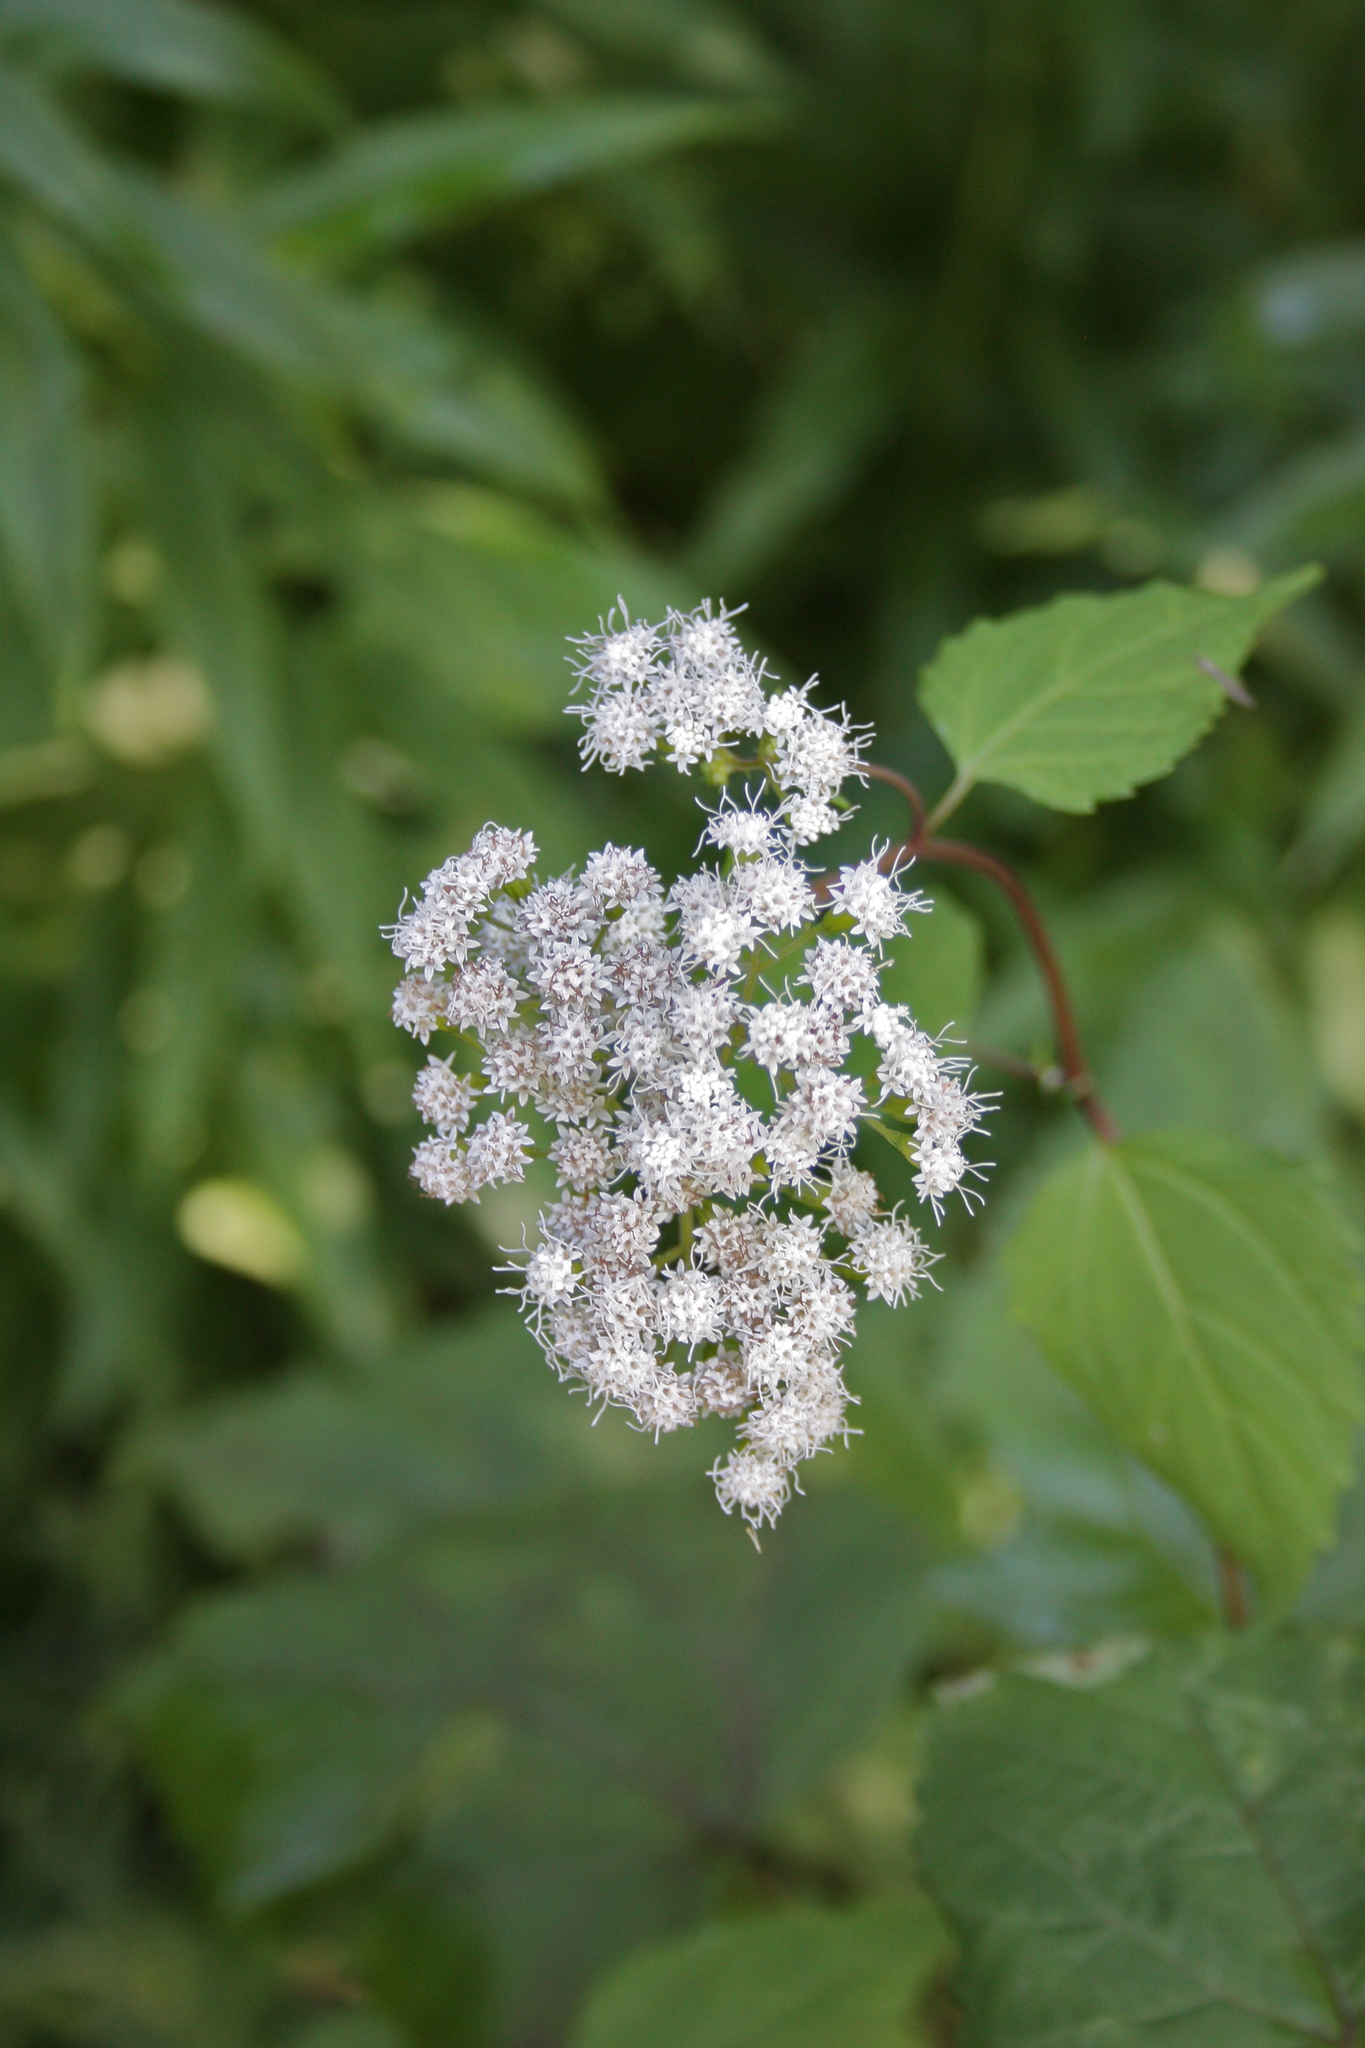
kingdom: Plantae
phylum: Tracheophyta
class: Magnoliopsida
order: Asterales
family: Asteraceae
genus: Ageratina
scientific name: Ageratina altissima
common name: White snakeroot
